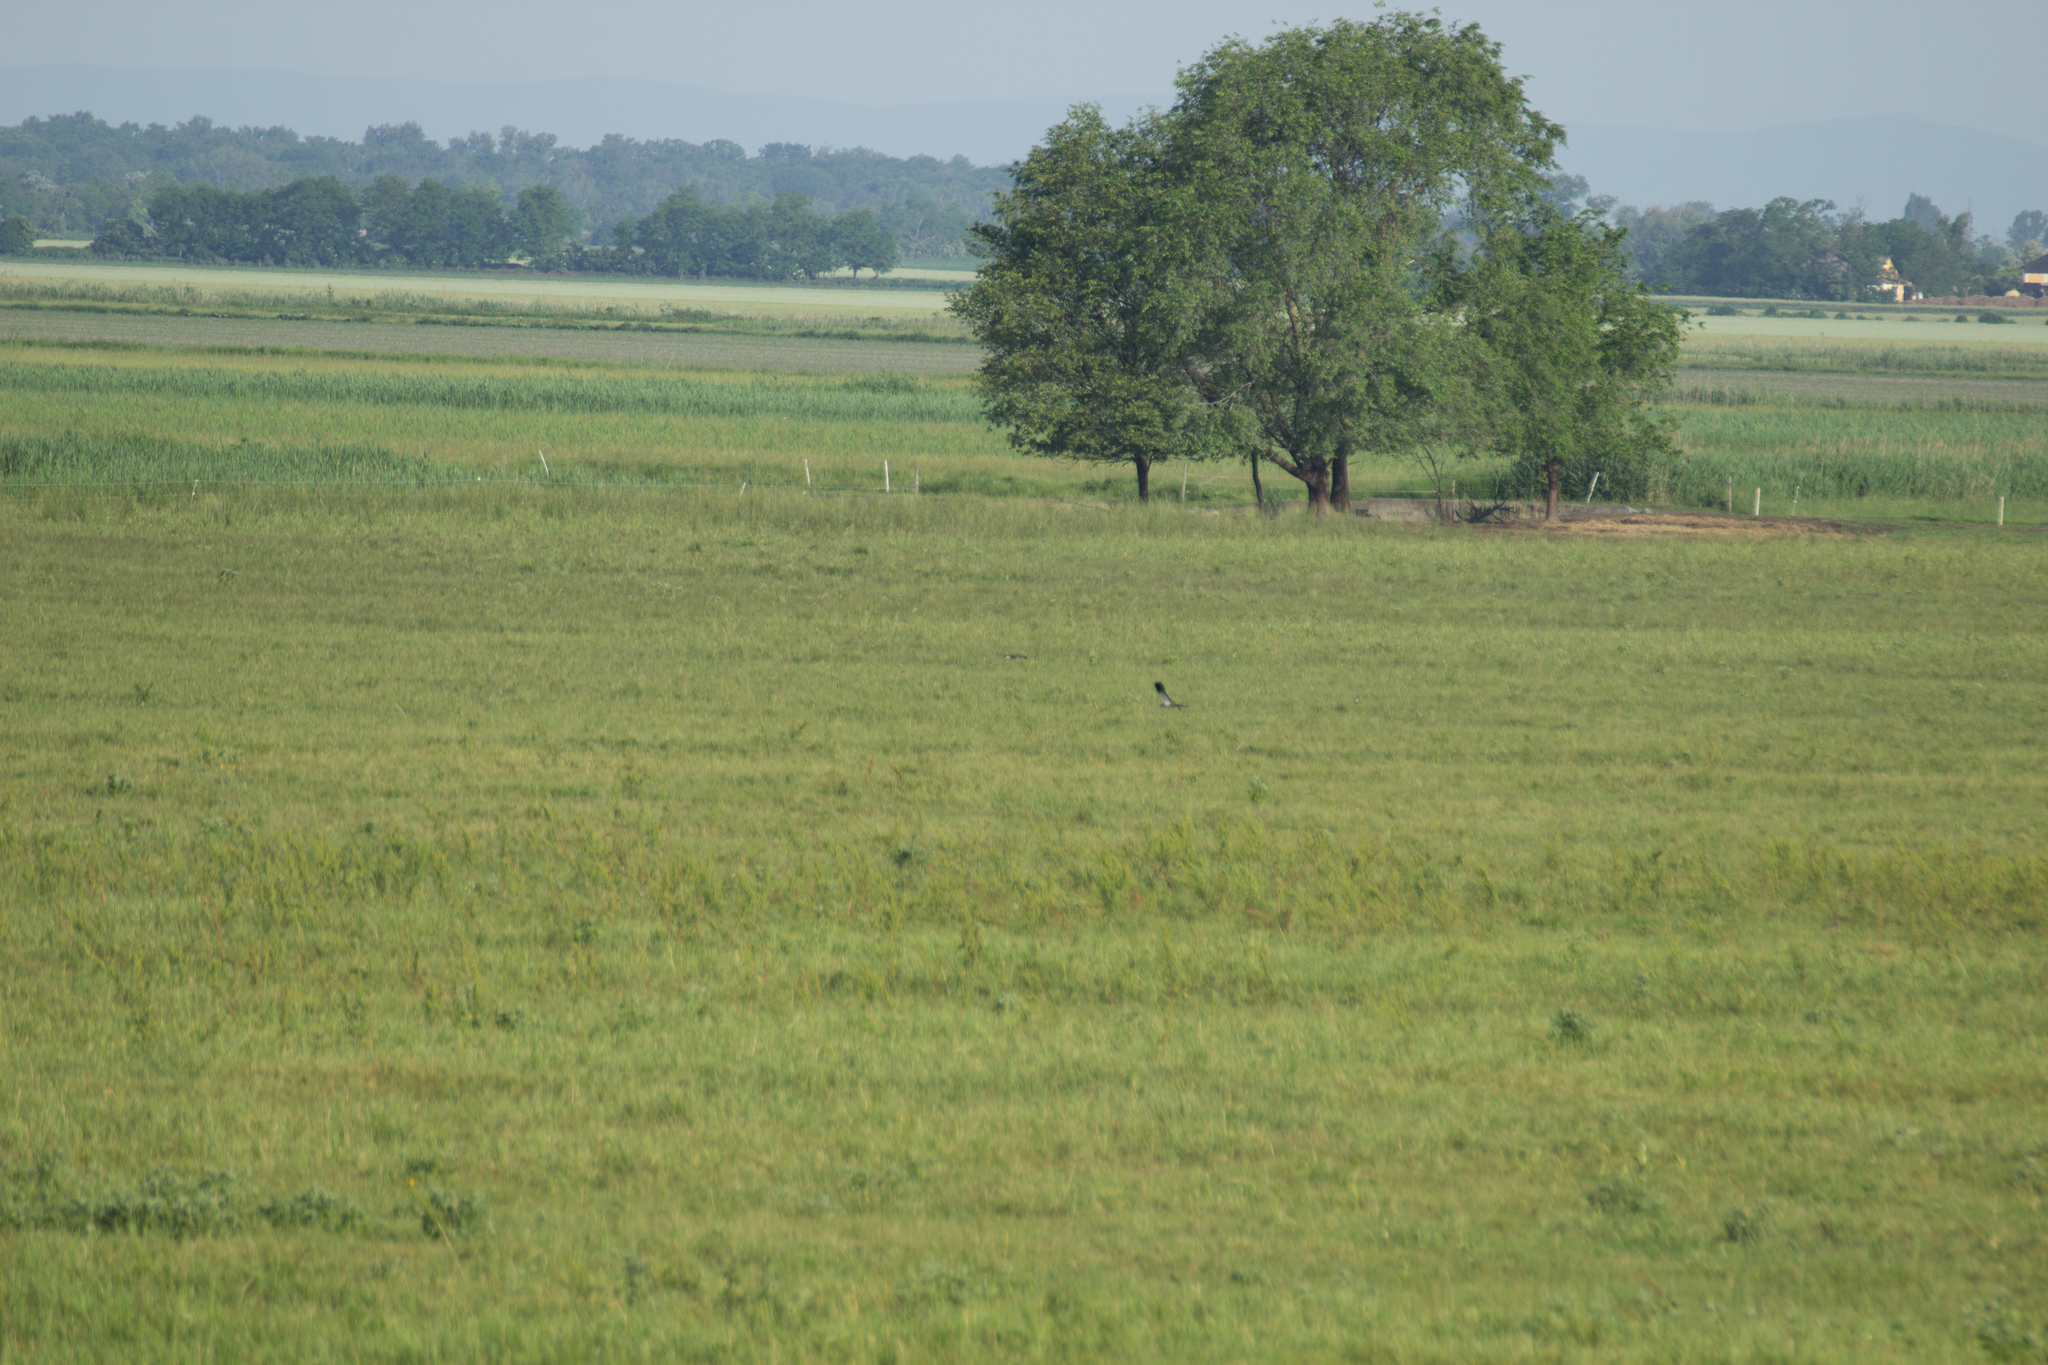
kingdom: Animalia
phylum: Chordata
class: Aves
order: Accipitriformes
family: Accipitridae
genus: Circus
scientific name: Circus cyaneus
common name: Hen harrier
